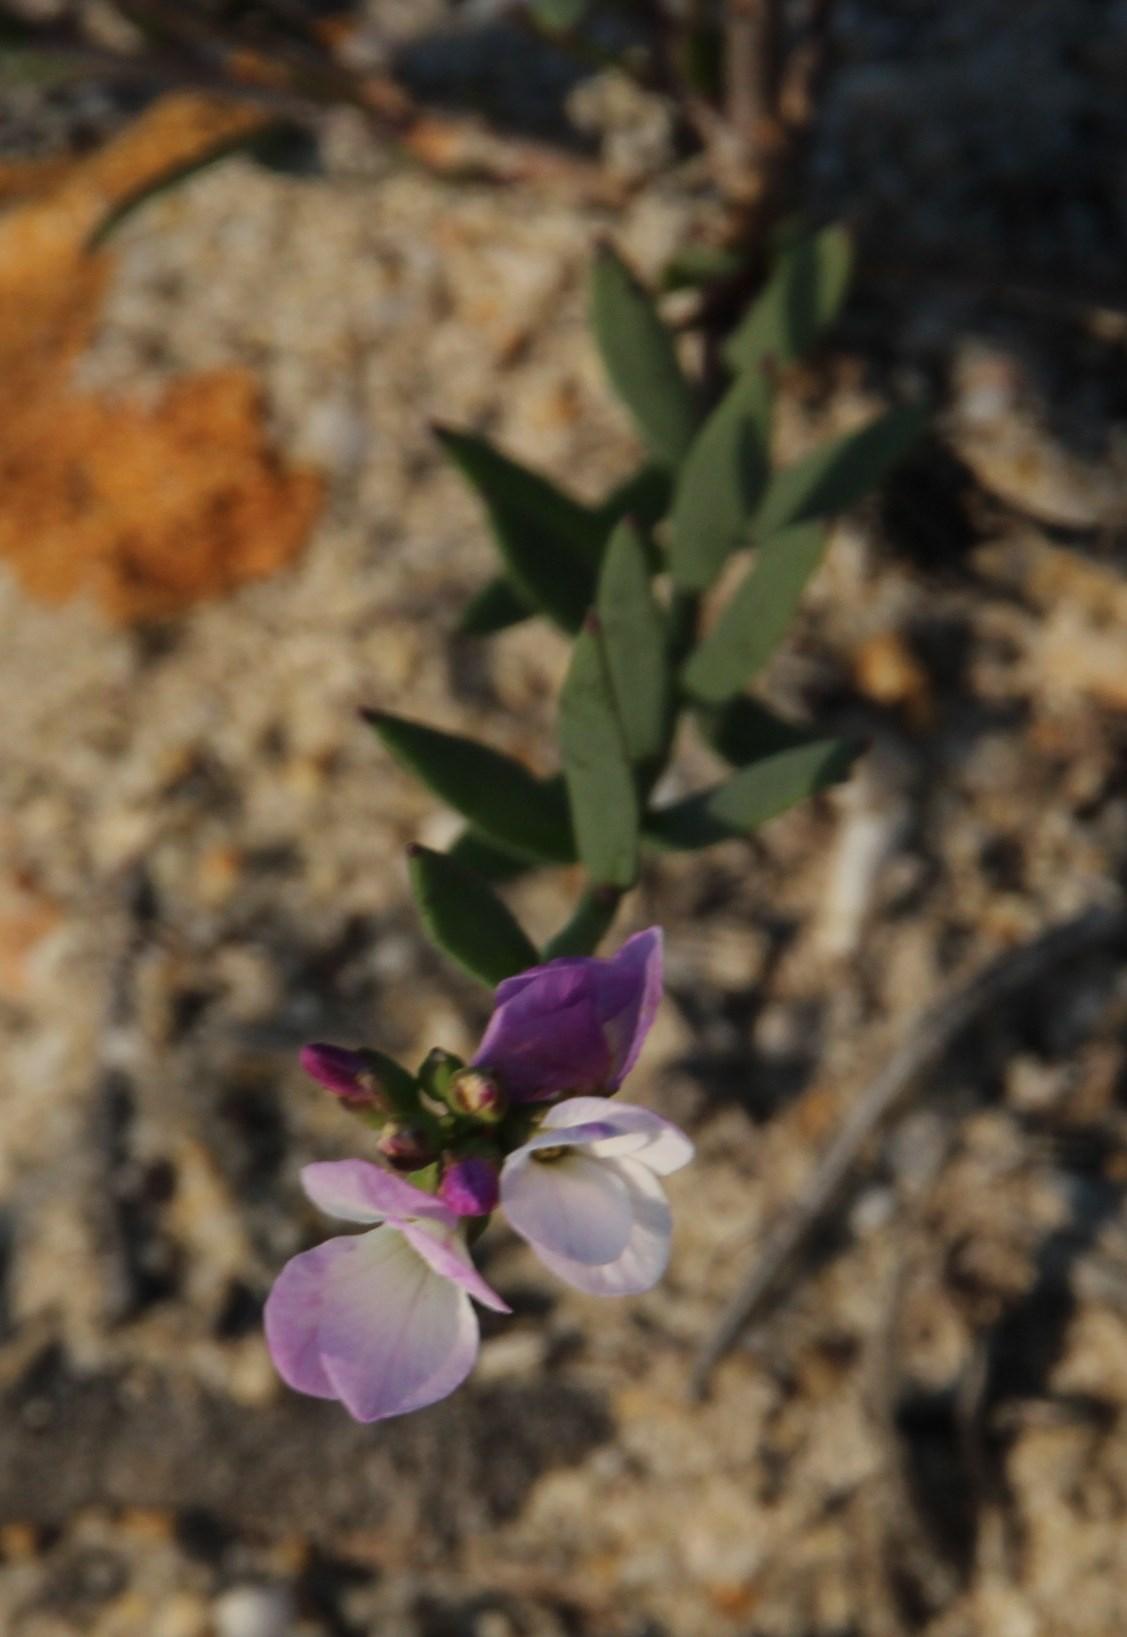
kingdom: Plantae
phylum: Tracheophyta
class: Magnoliopsida
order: Brassicales
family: Brassicaceae
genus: Heliophila
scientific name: Heliophila juncea
